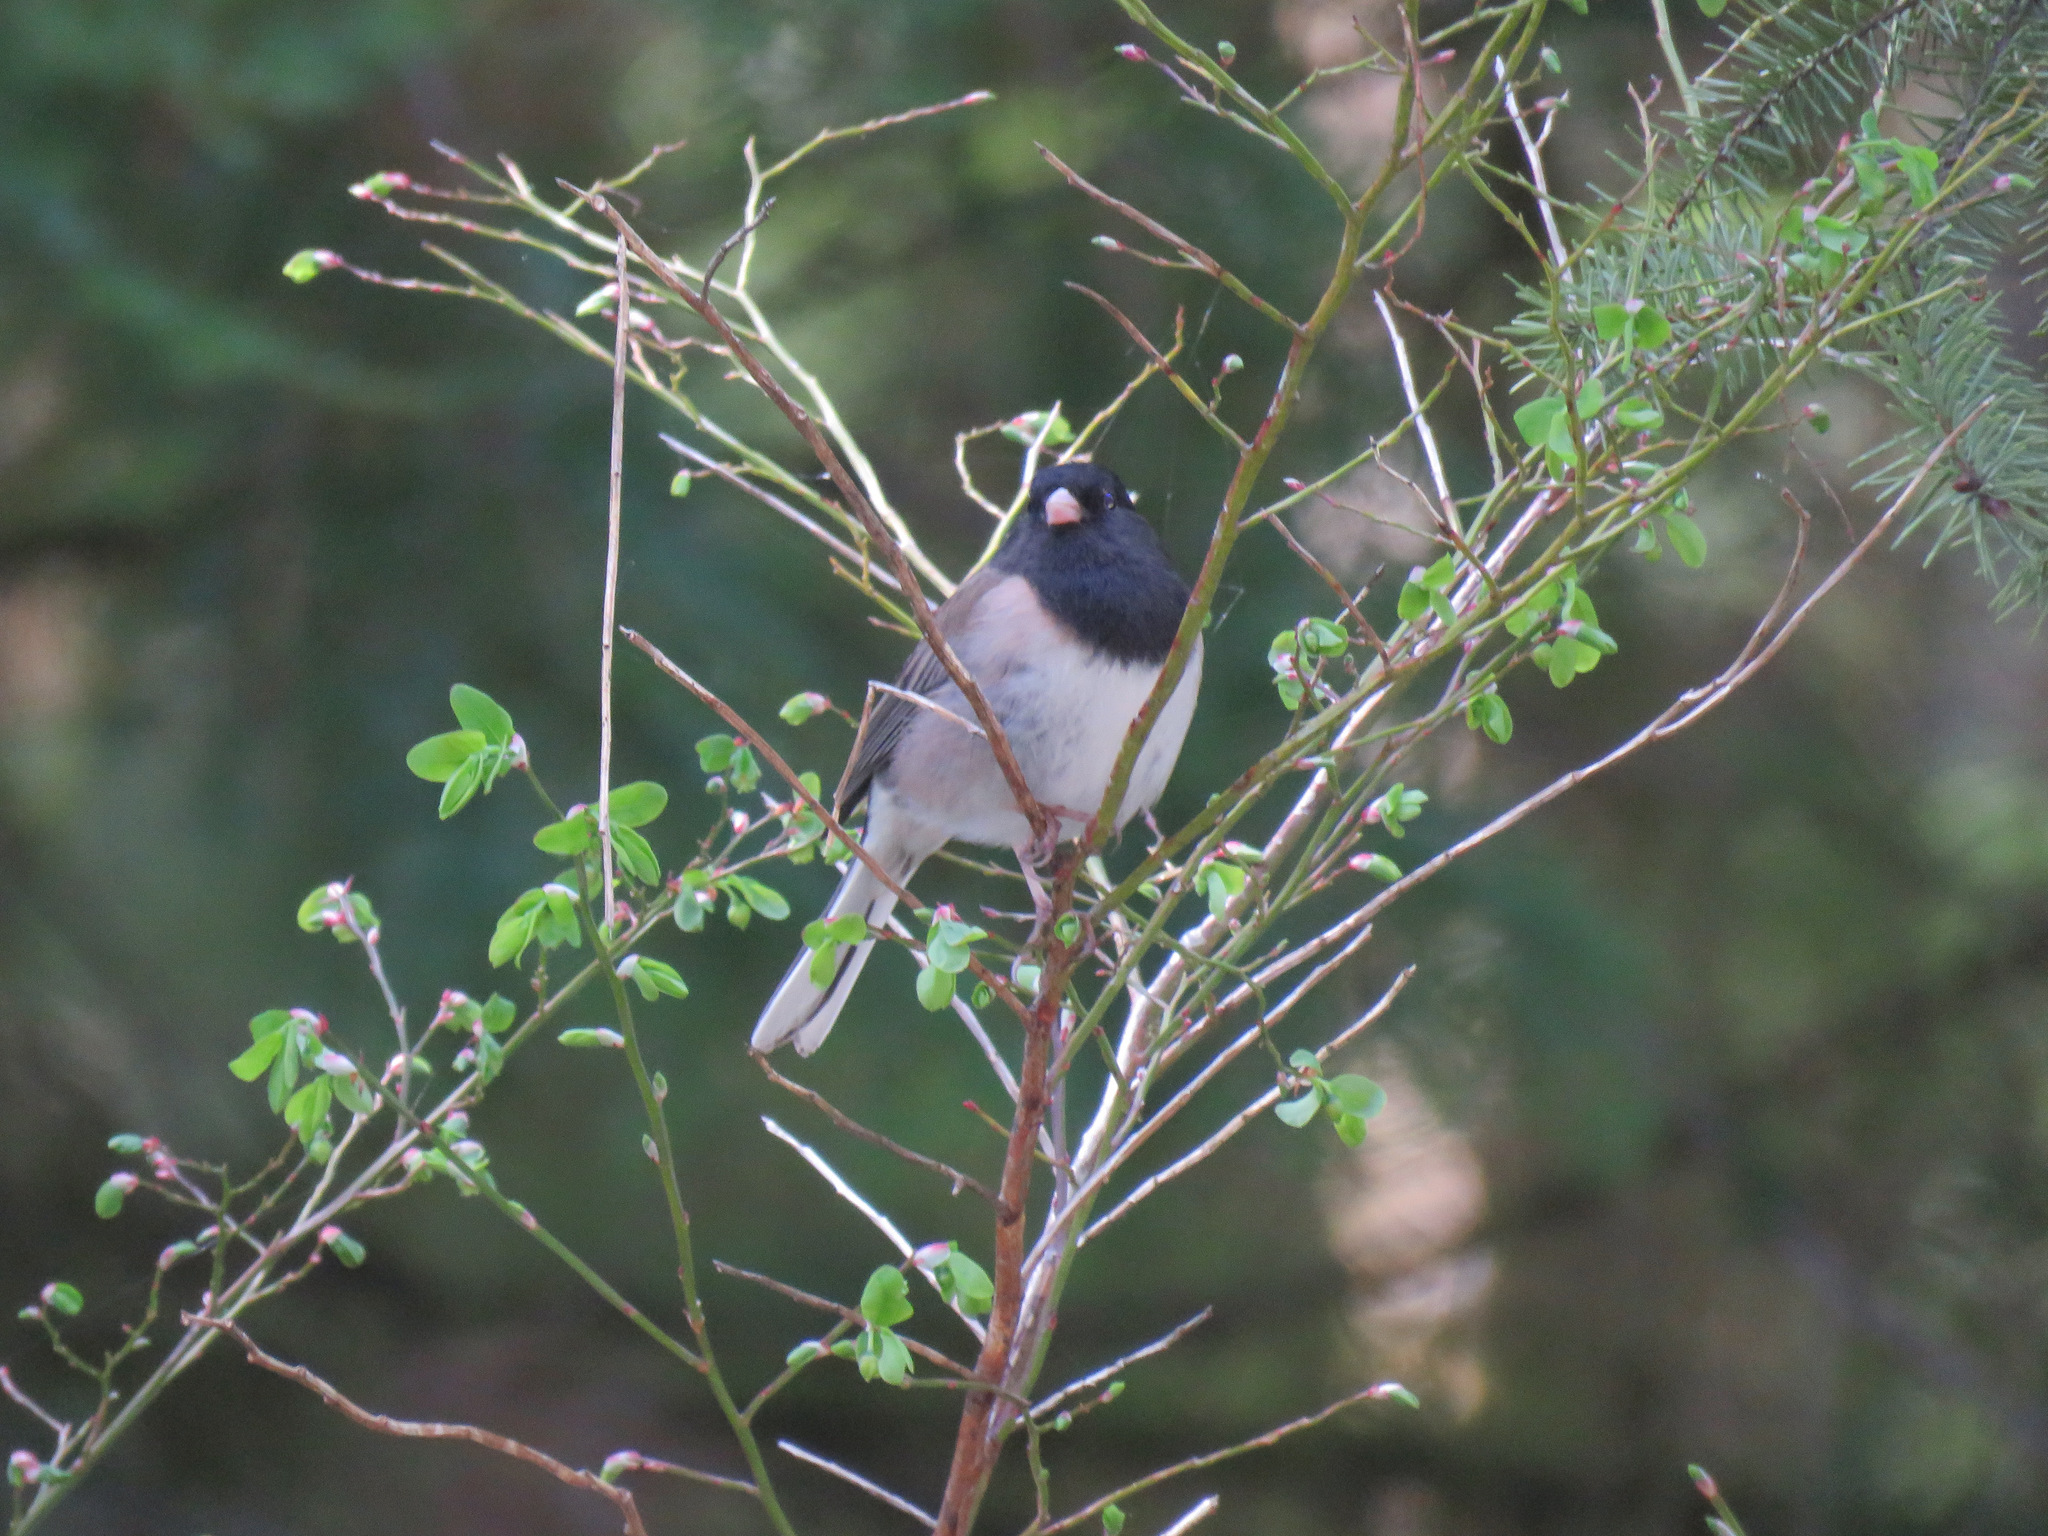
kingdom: Animalia
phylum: Chordata
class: Aves
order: Passeriformes
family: Passerellidae
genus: Junco
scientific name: Junco hyemalis
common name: Dark-eyed junco
